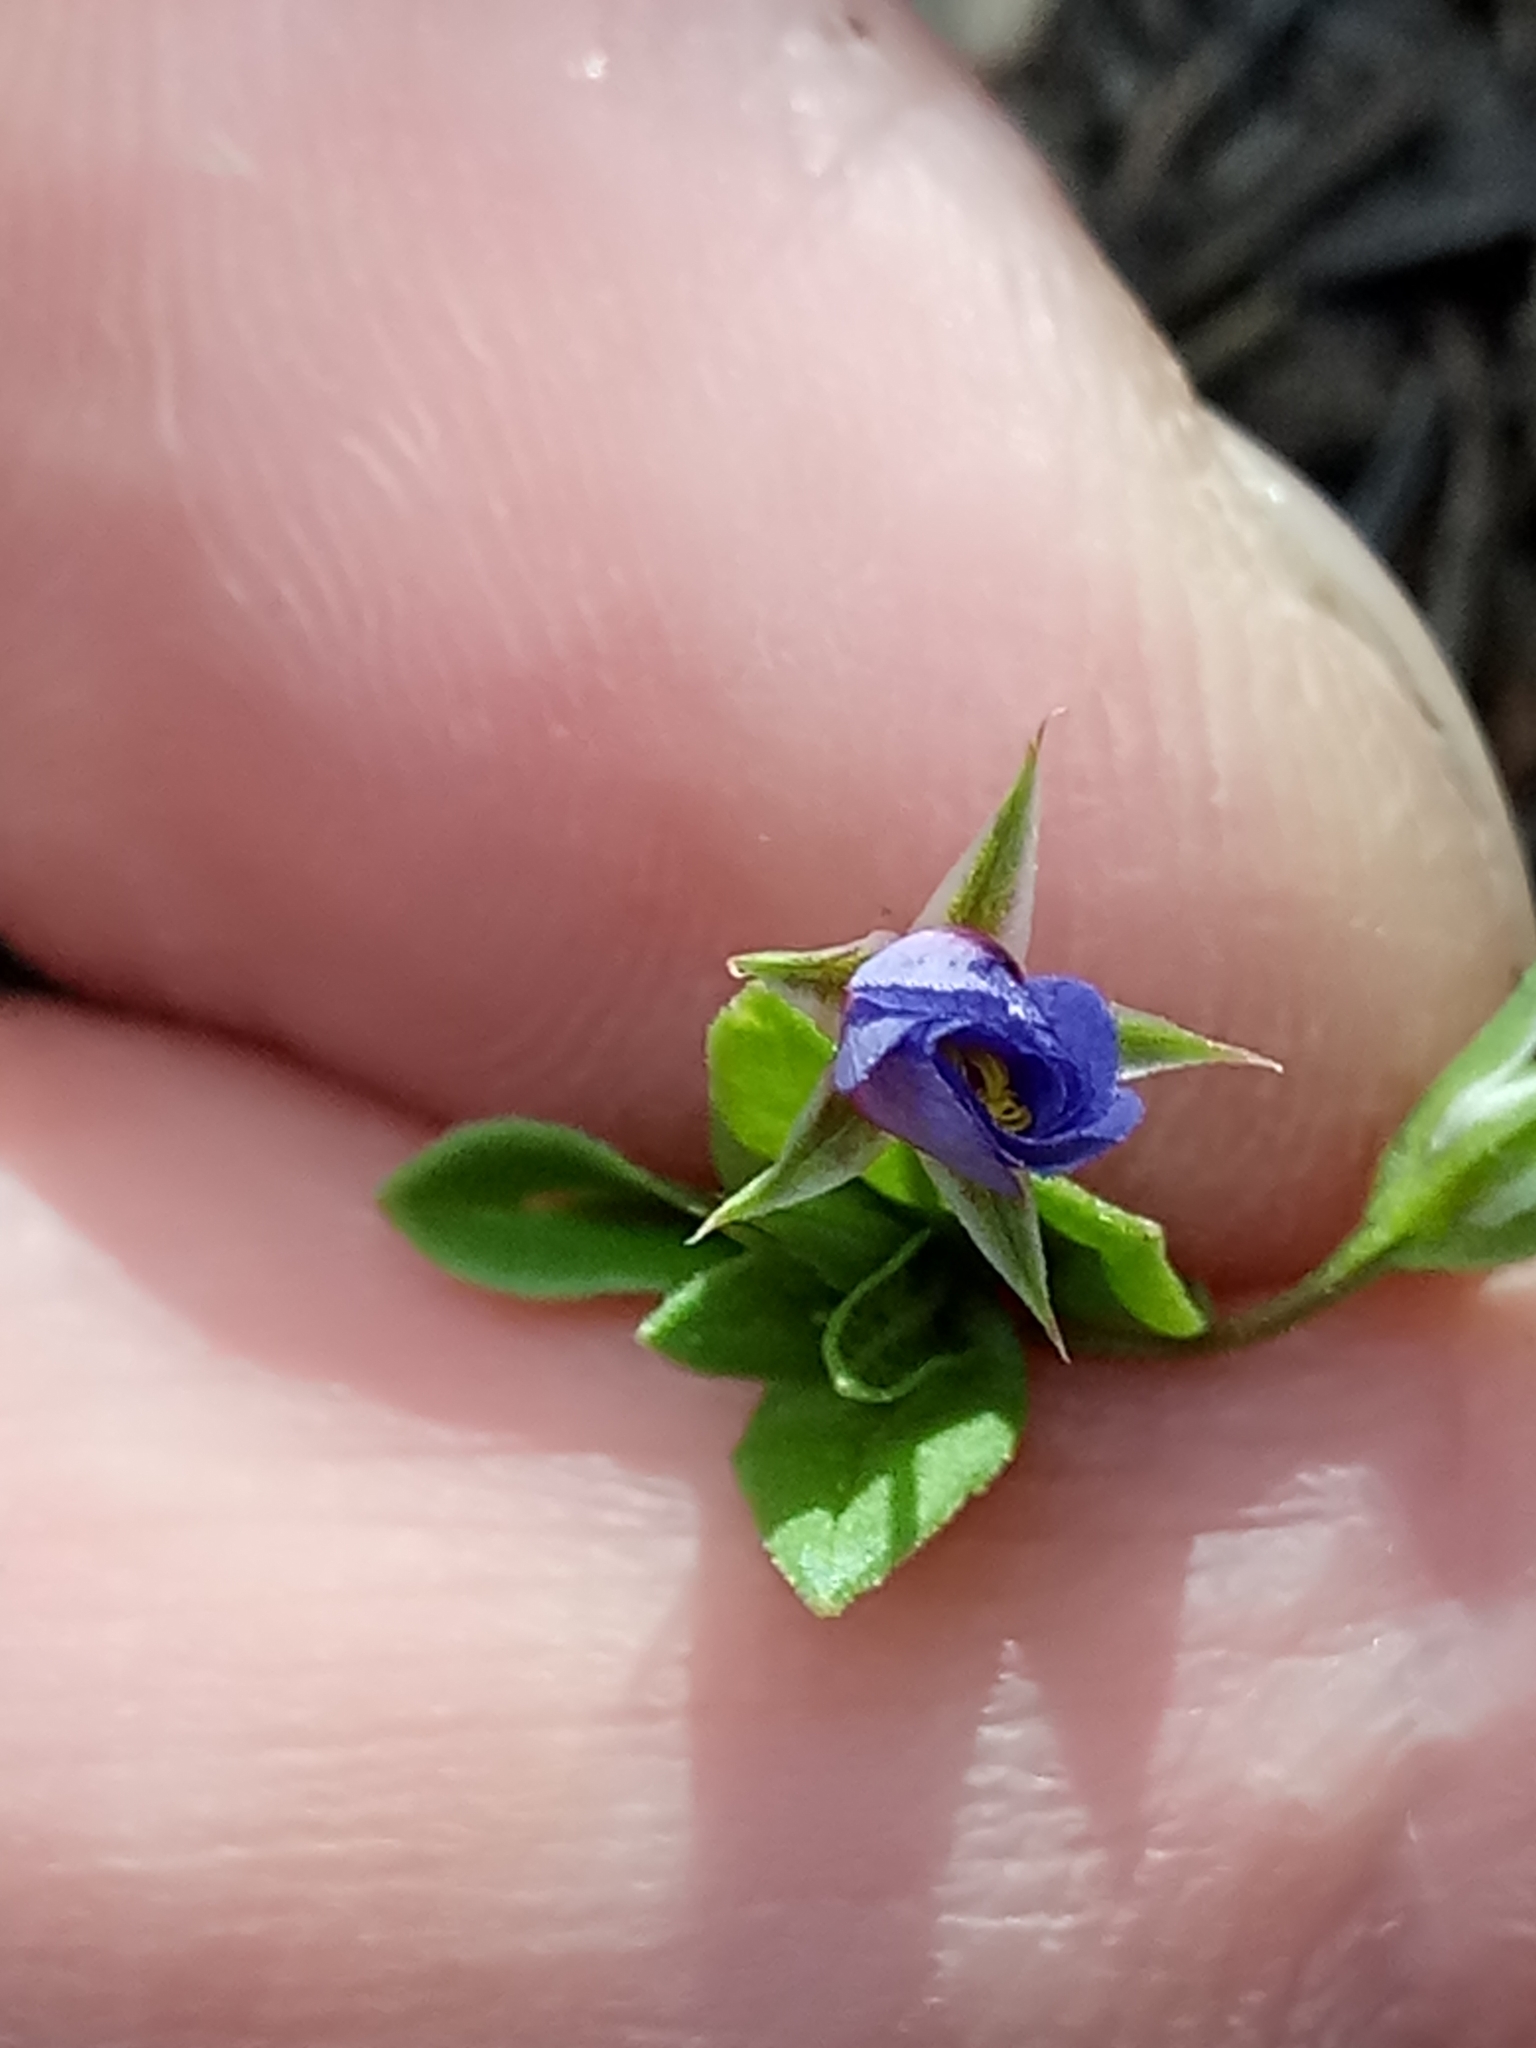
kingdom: Plantae
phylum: Tracheophyta
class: Magnoliopsida
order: Ericales
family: Primulaceae
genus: Lysimachia
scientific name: Lysimachia loeflingii
